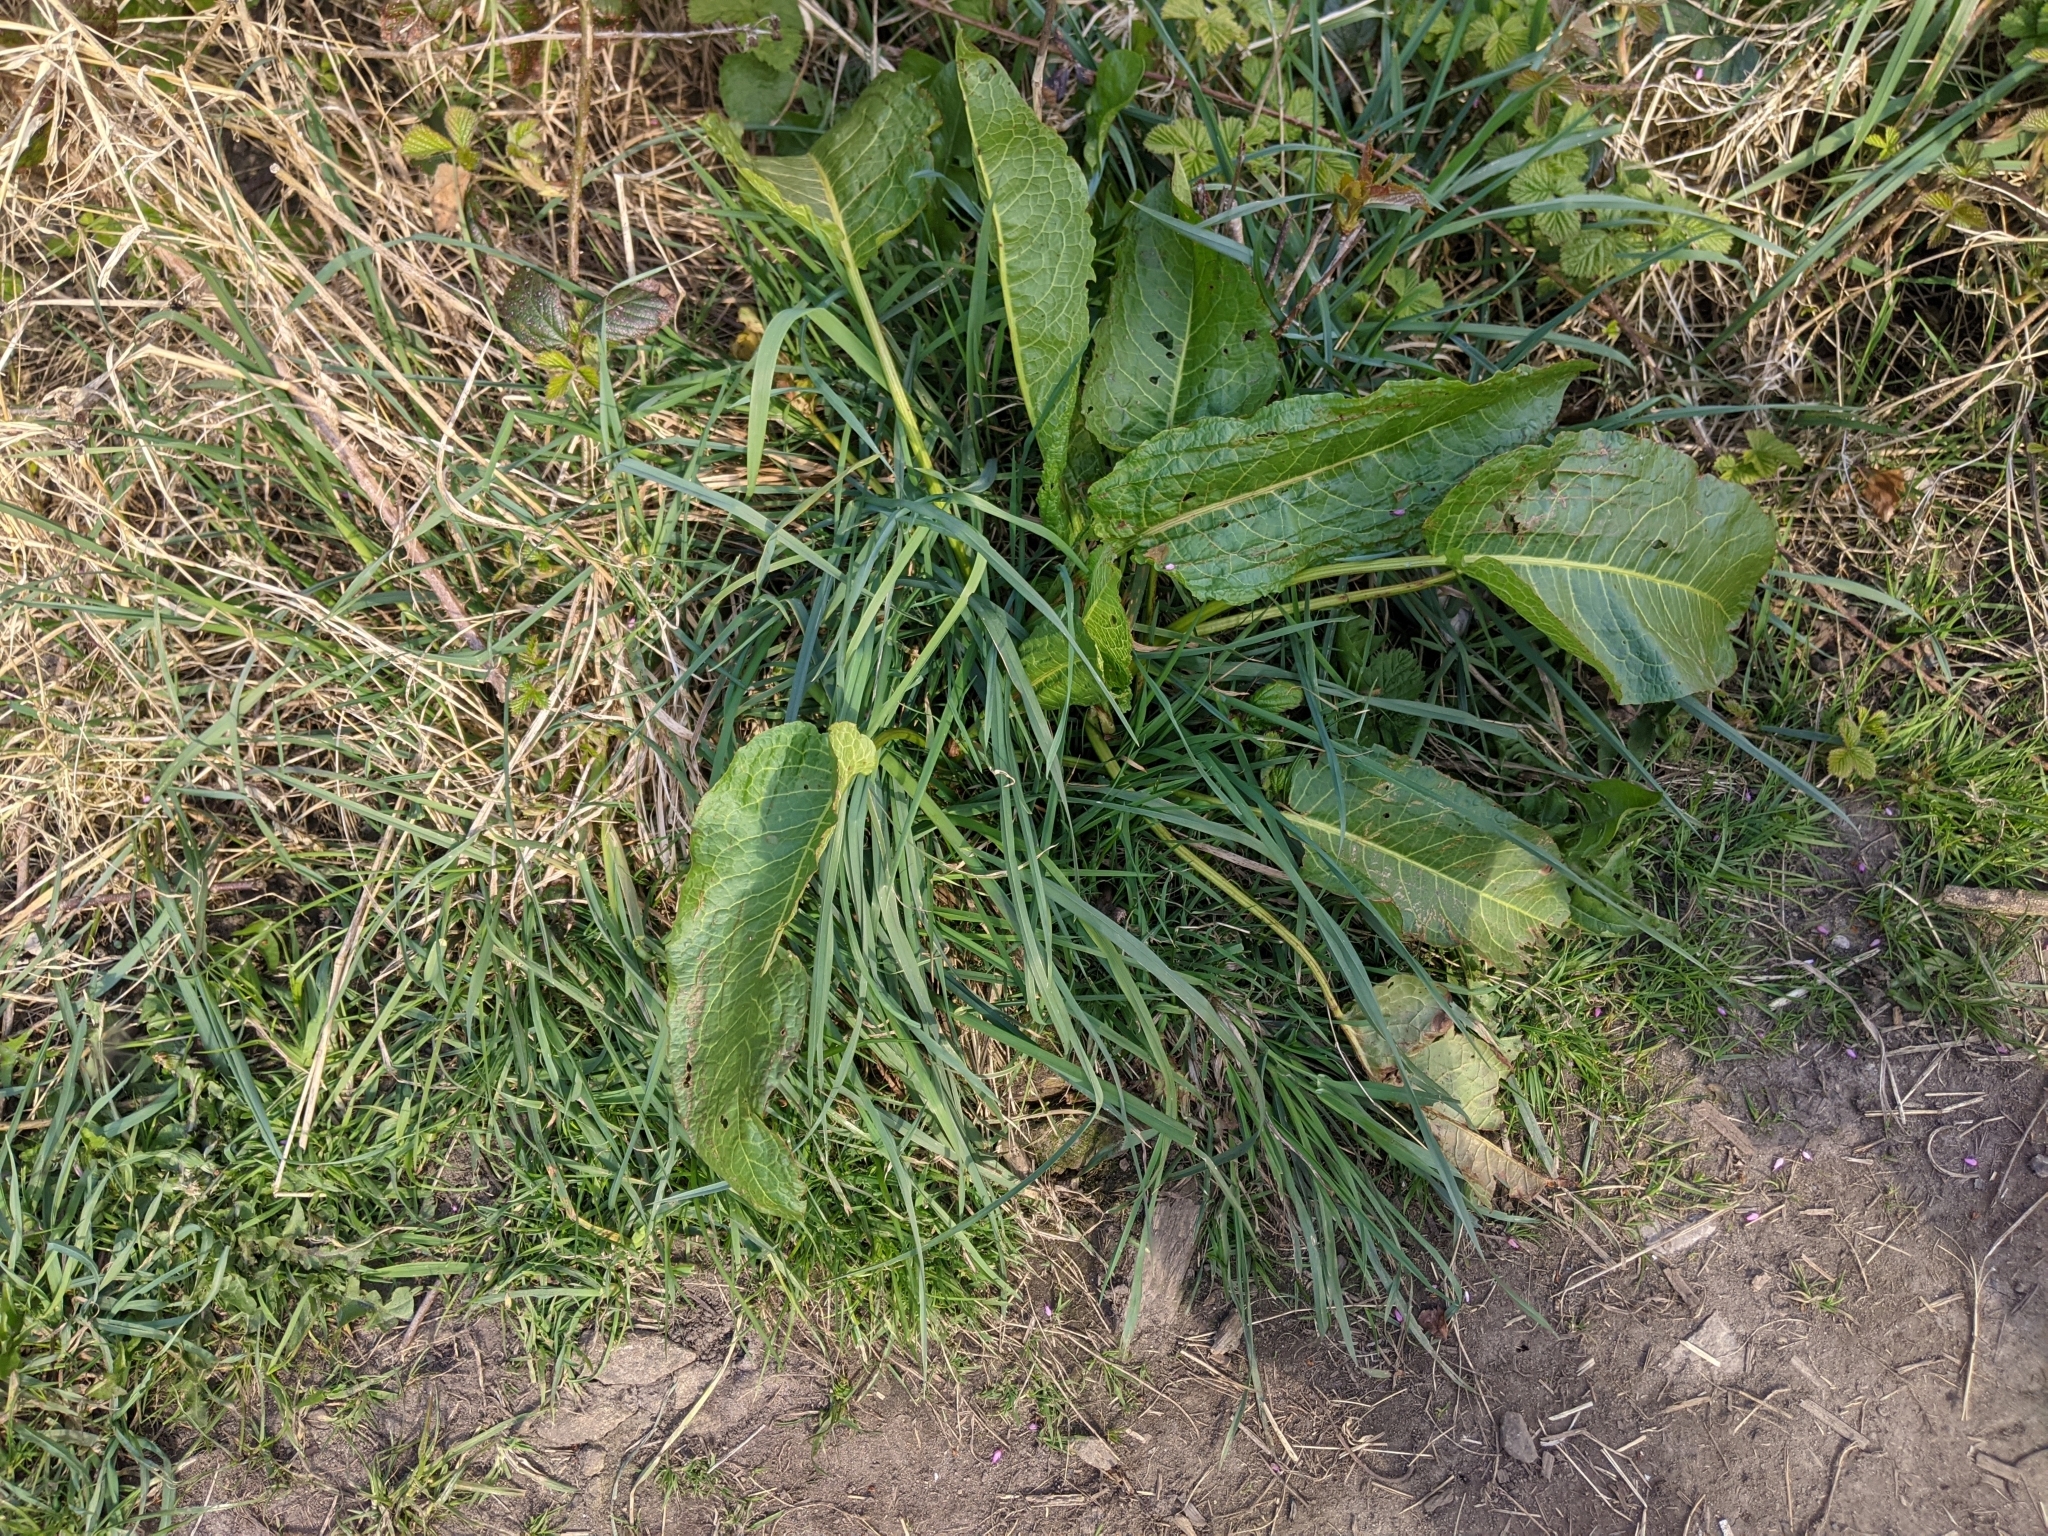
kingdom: Plantae
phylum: Tracheophyta
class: Magnoliopsida
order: Caryophyllales
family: Polygonaceae
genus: Rumex
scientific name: Rumex obtusifolius
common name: Bitter dock
